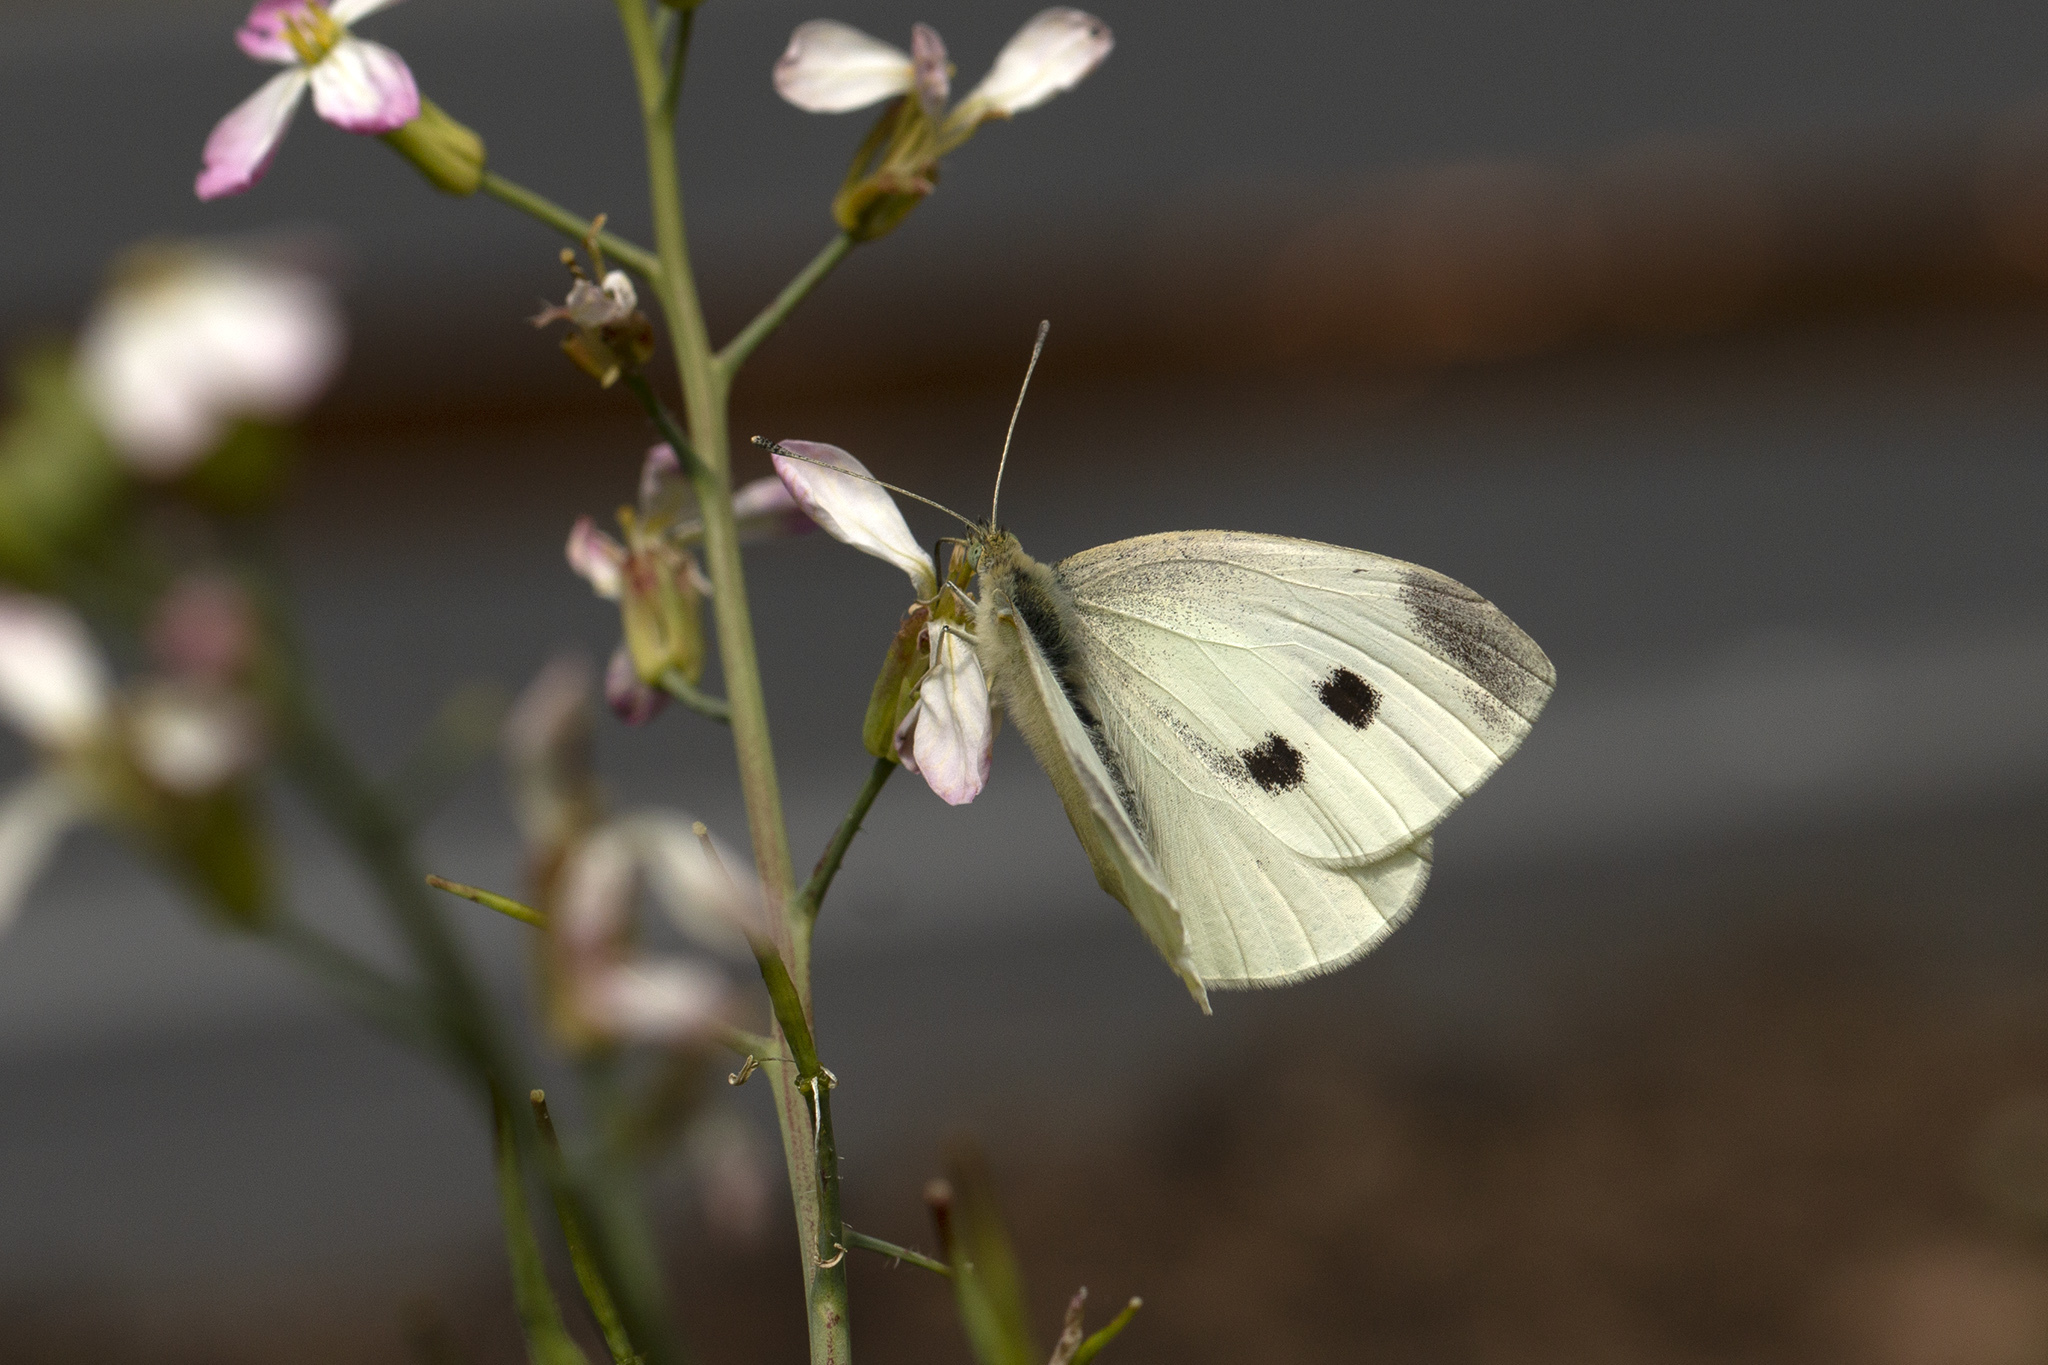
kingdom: Animalia
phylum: Arthropoda
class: Insecta
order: Lepidoptera
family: Pieridae
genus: Pieris
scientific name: Pieris rapae
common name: Small white
